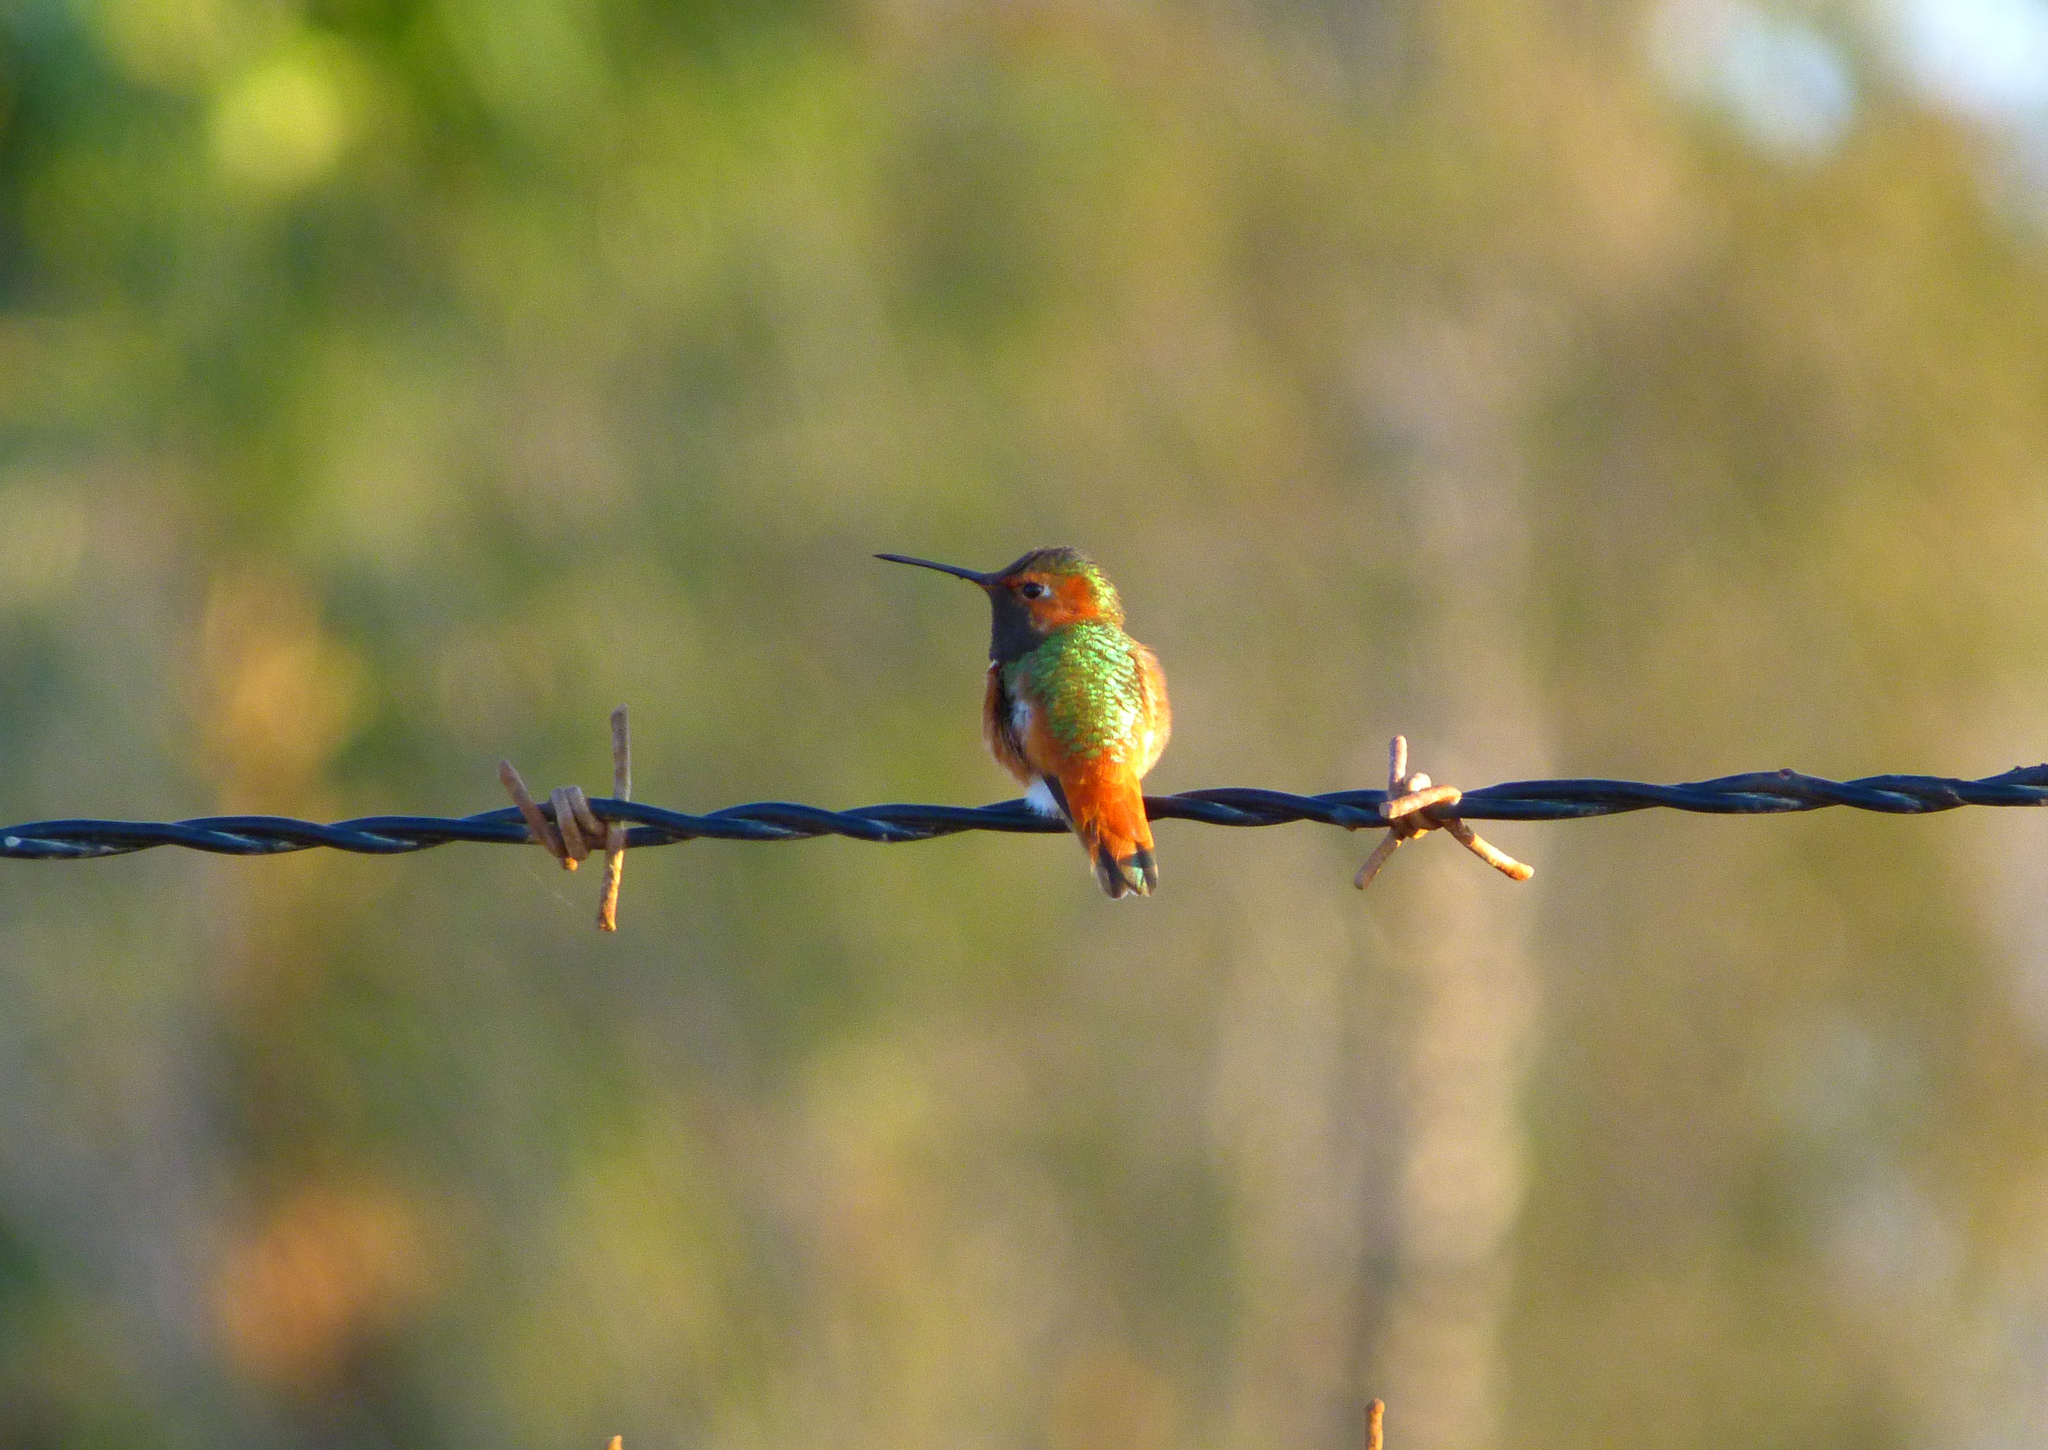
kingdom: Animalia
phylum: Chordata
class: Aves
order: Apodiformes
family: Trochilidae
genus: Selasphorus
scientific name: Selasphorus sasin
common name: Allen's hummingbird
